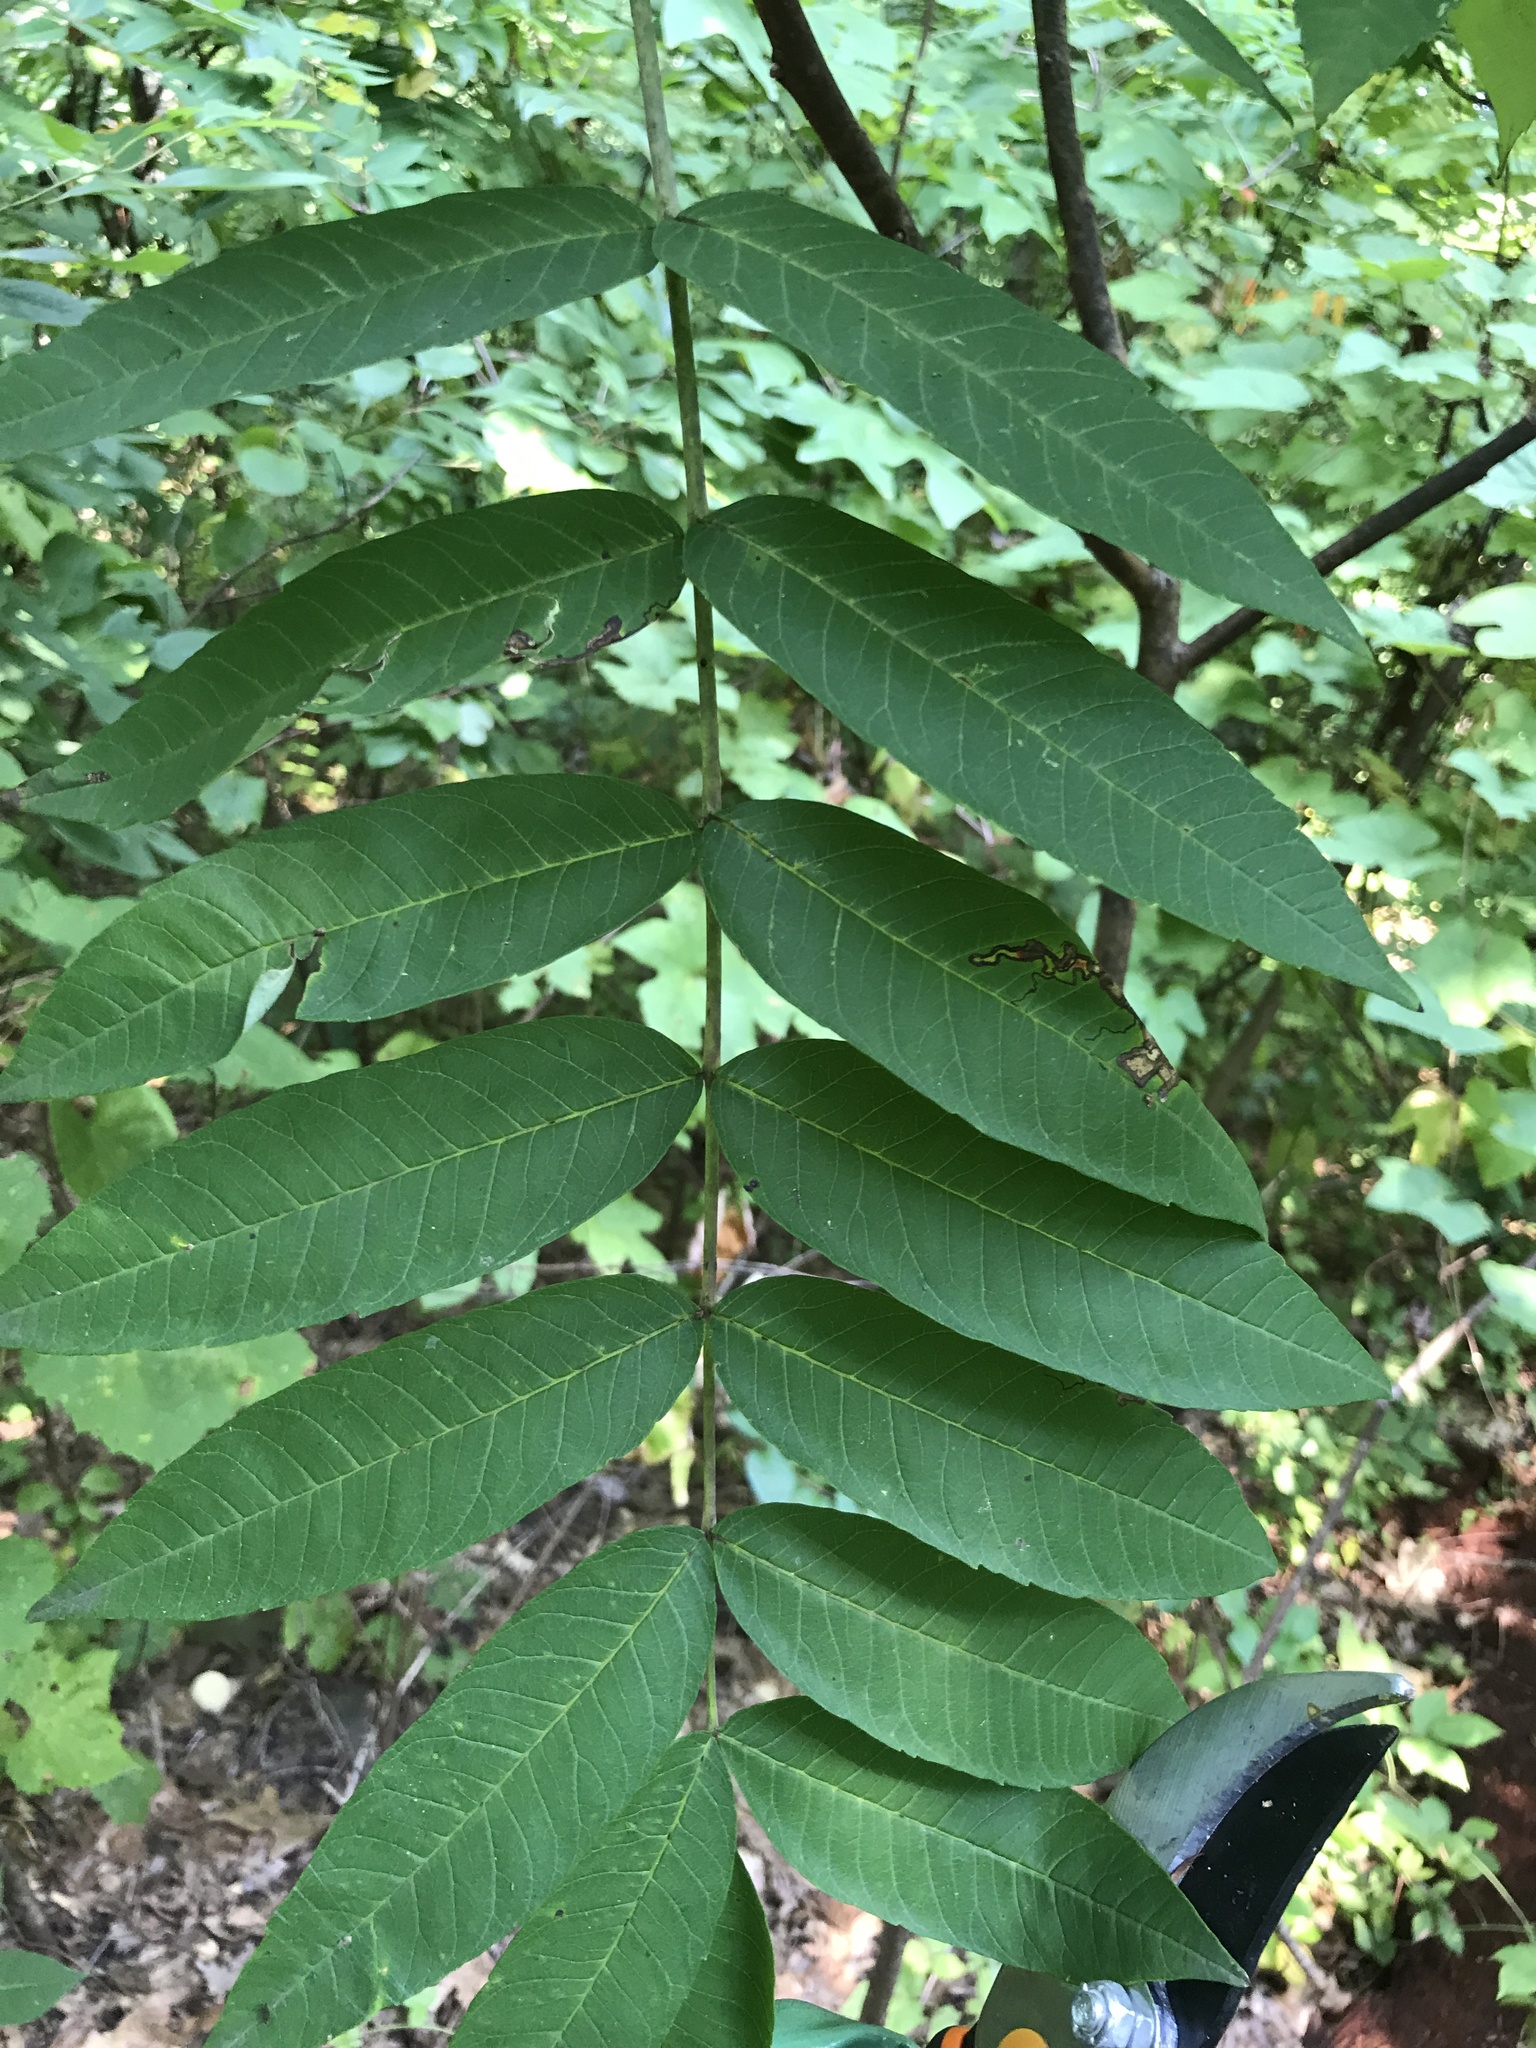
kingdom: Plantae
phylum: Tracheophyta
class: Magnoliopsida
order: Sapindales
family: Anacardiaceae
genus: Rhus
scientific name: Rhus glabra
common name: Scarlet sumac
